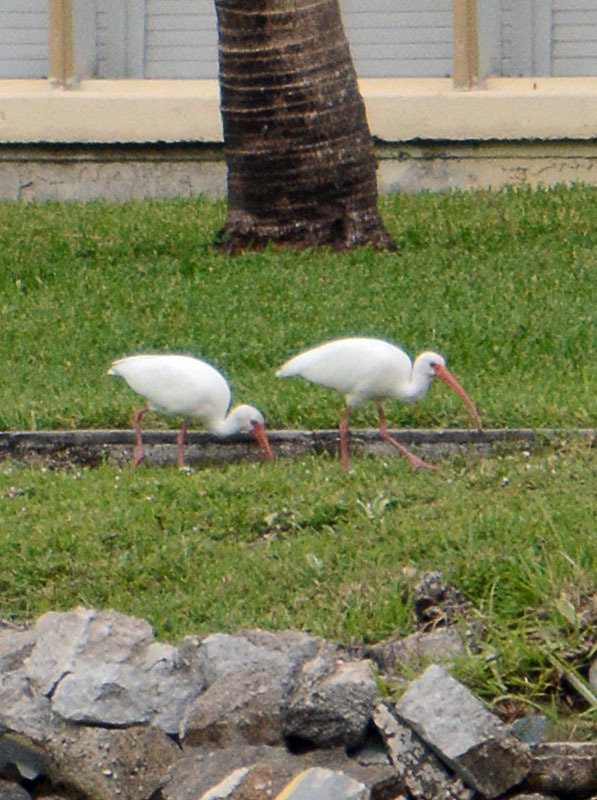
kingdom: Animalia
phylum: Chordata
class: Aves
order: Pelecaniformes
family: Threskiornithidae
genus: Eudocimus
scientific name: Eudocimus albus
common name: White ibis
